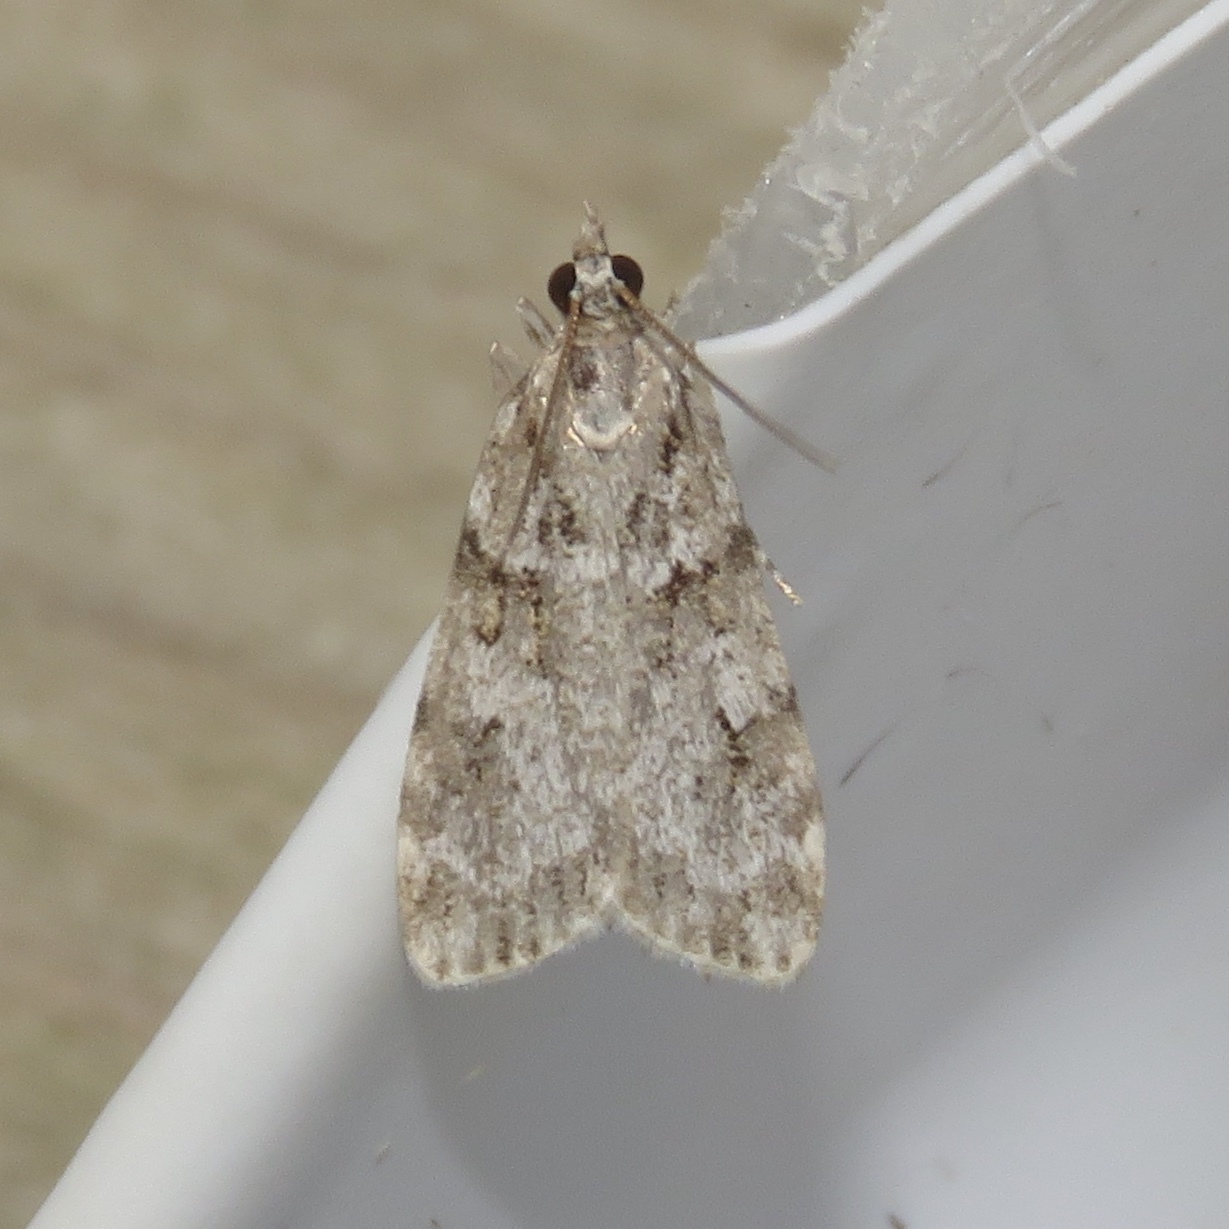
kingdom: Animalia
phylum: Arthropoda
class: Insecta
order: Lepidoptera
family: Crambidae
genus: Scoparia
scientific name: Scoparia biplagialis
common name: Double-striped scoparia moth
